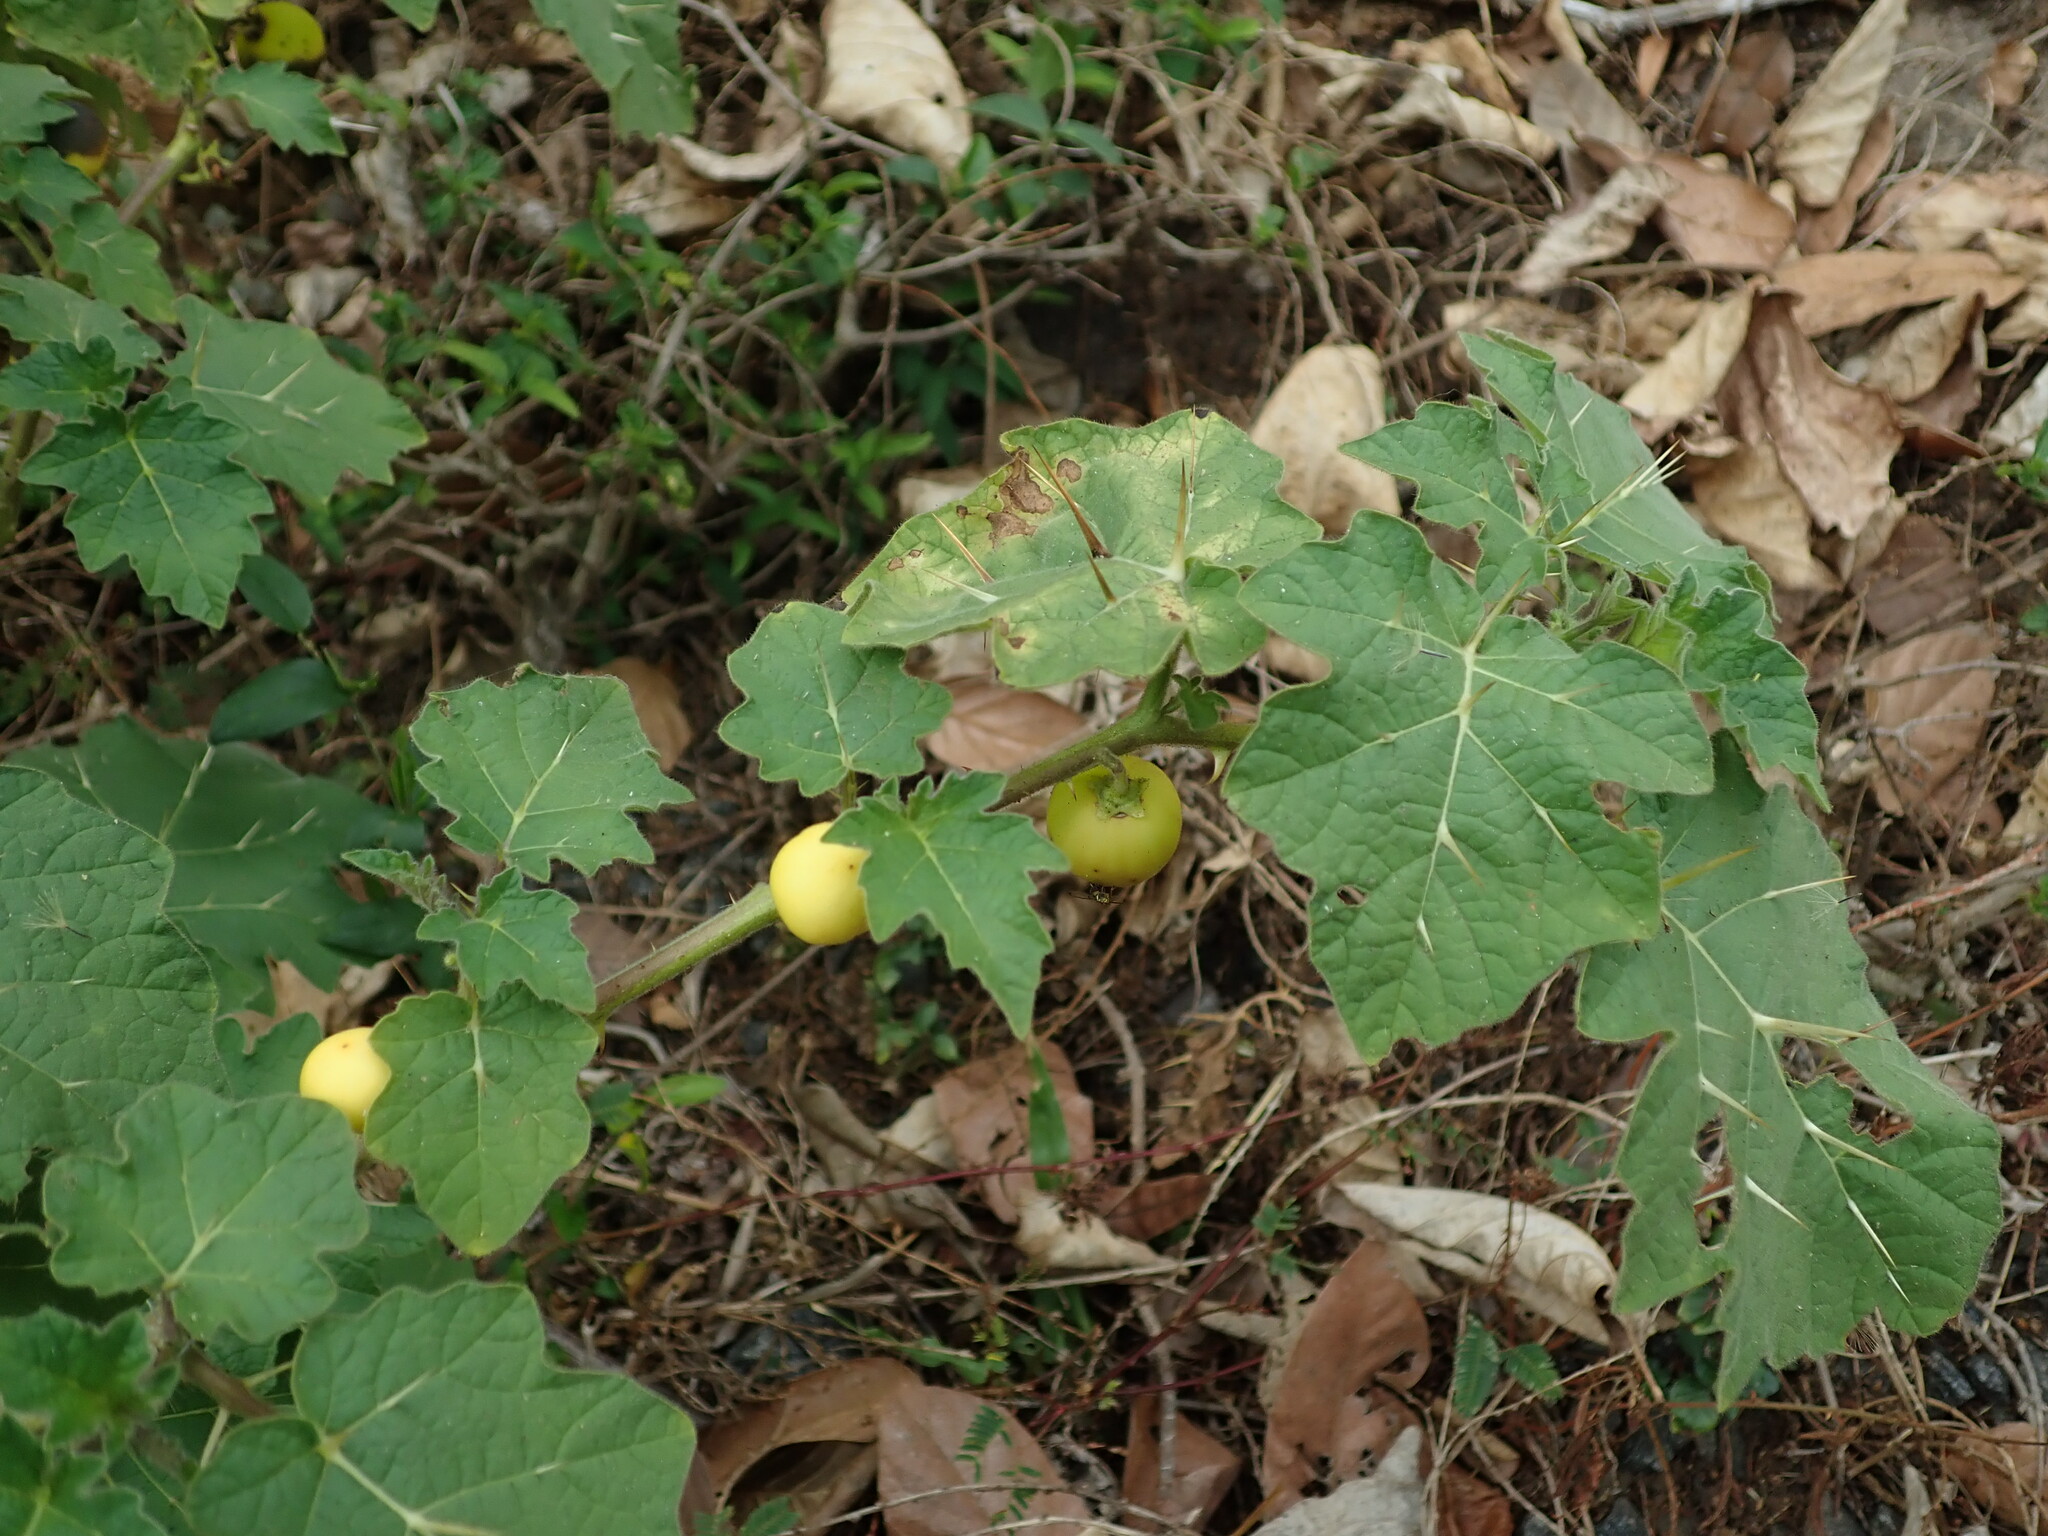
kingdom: Plantae
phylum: Tracheophyta
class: Magnoliopsida
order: Solanales
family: Solanaceae
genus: Solanum
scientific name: Solanum viarum
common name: Tropical soda apple
